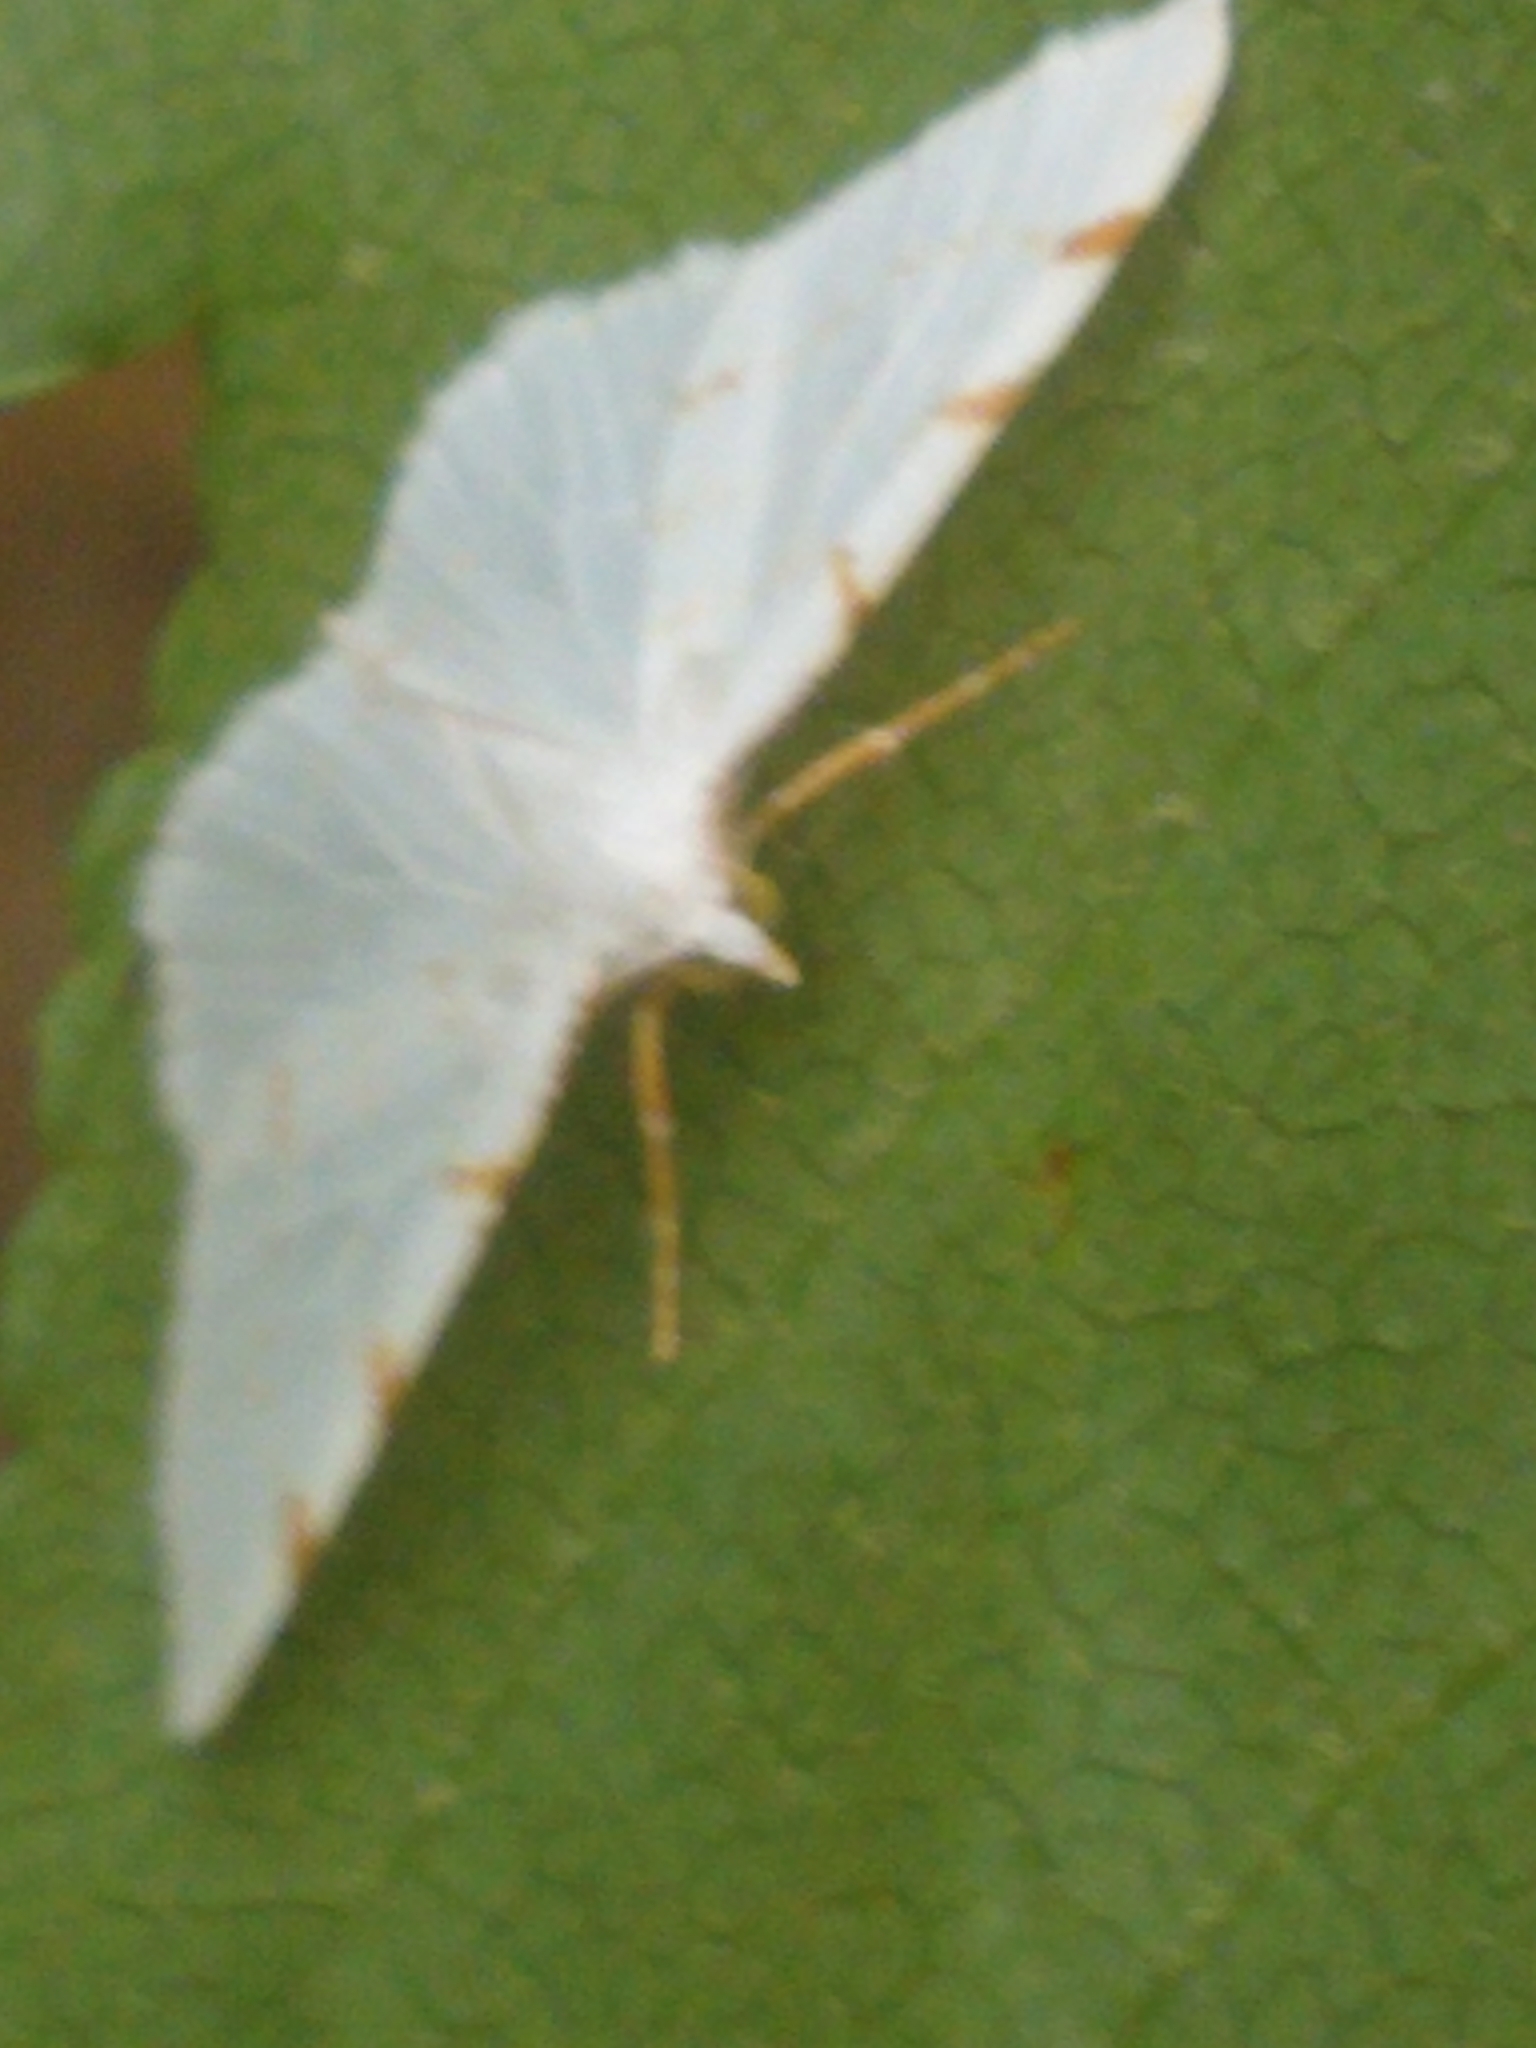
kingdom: Animalia
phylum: Arthropoda
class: Insecta
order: Lepidoptera
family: Geometridae
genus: Macaria
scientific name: Macaria pustularia
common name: Lesser maple spanworm moth
